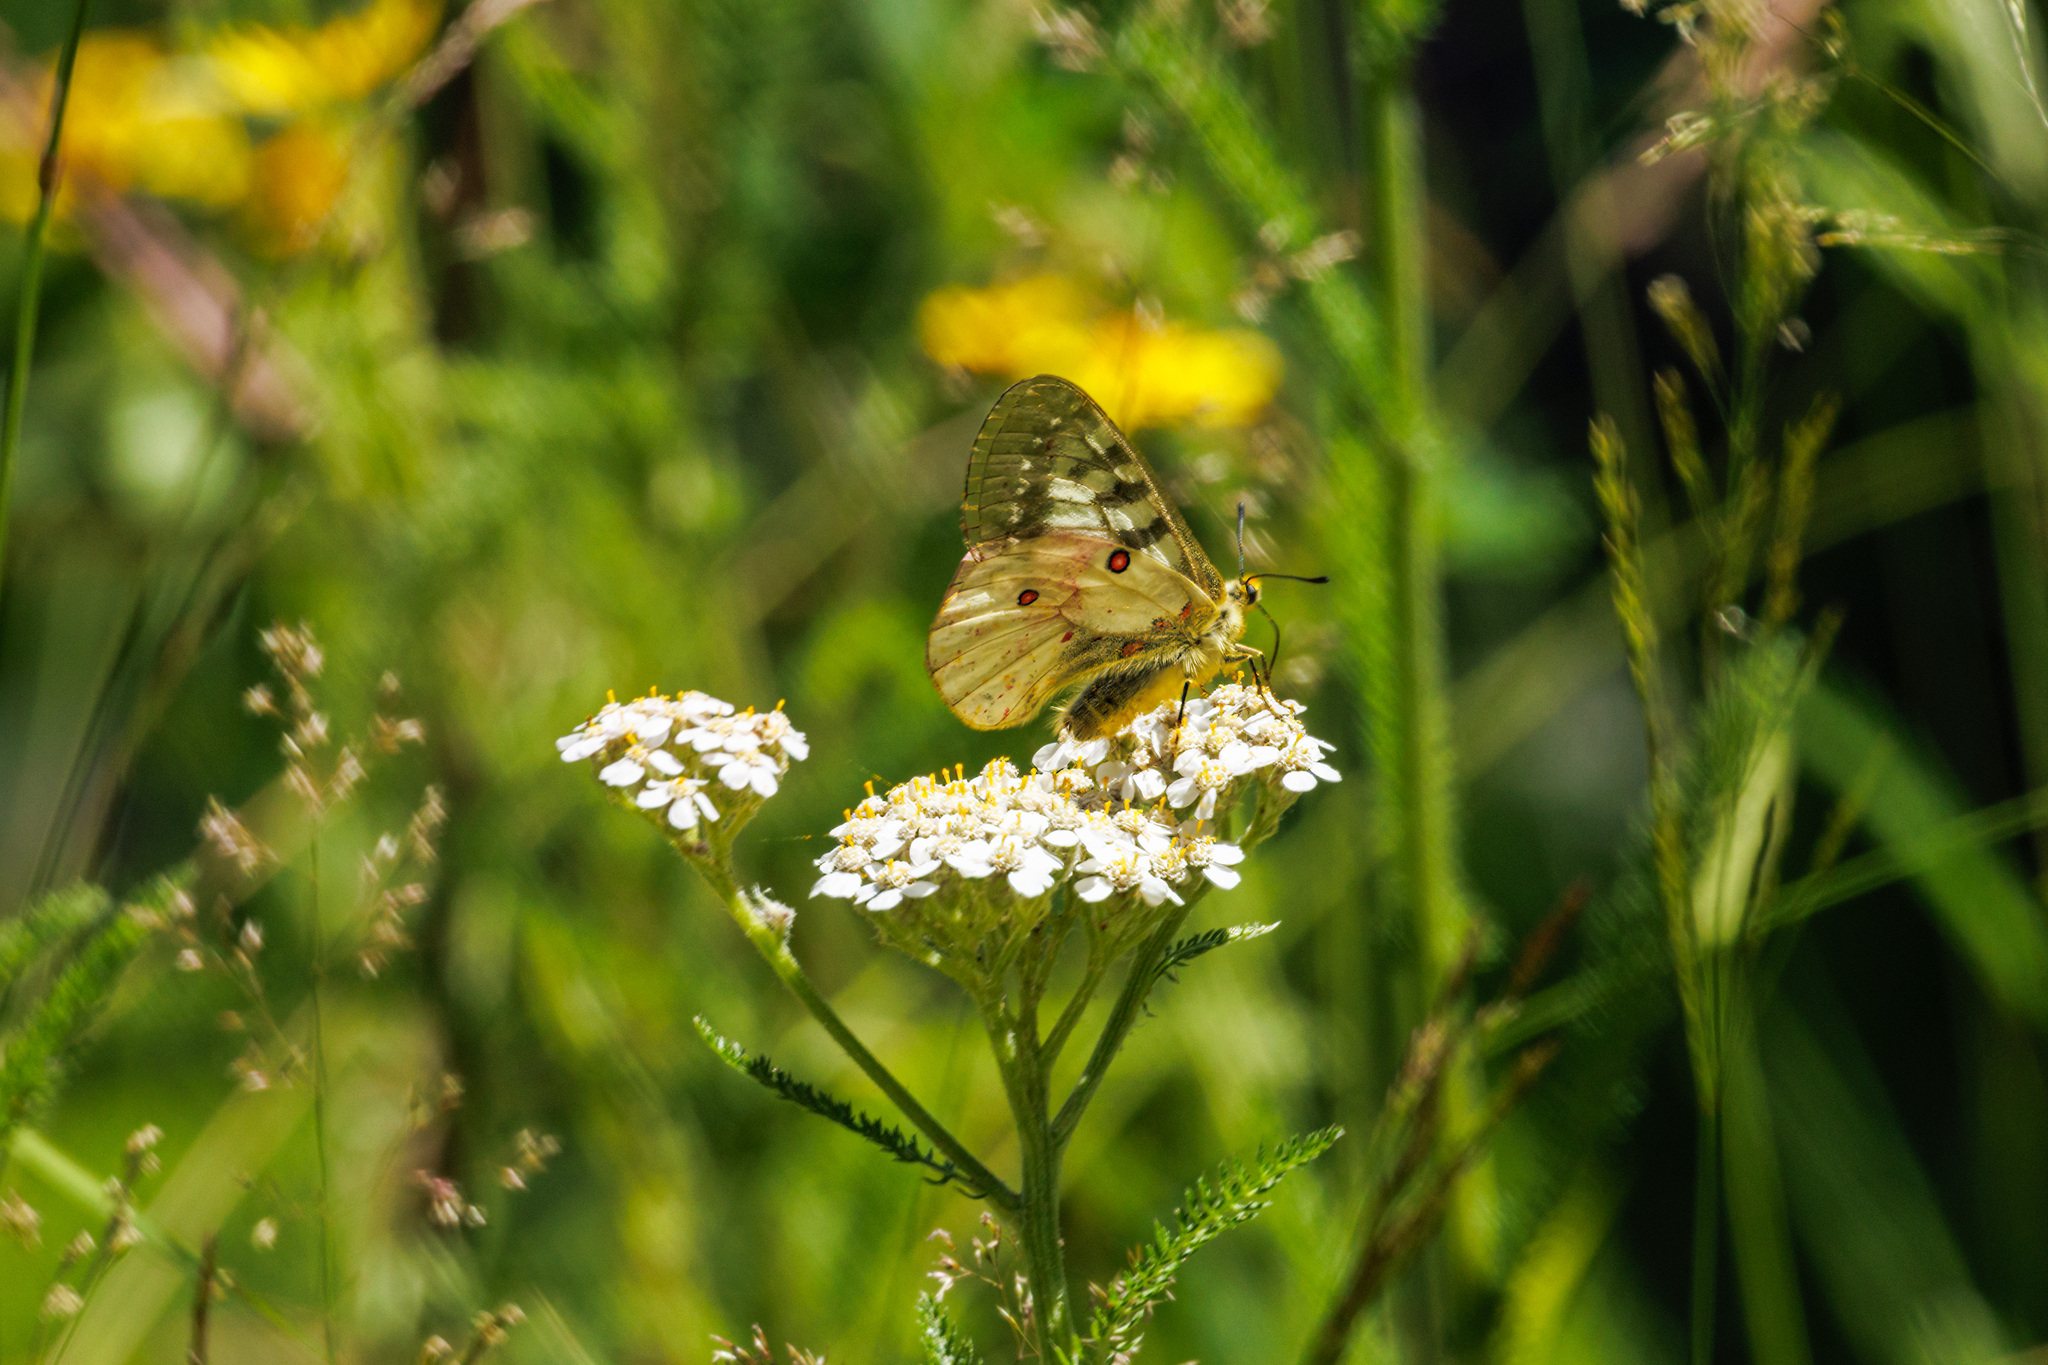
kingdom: Animalia
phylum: Arthropoda
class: Insecta
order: Lepidoptera
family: Papilionidae
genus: Parnassius
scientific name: Parnassius clodius
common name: American apollo
